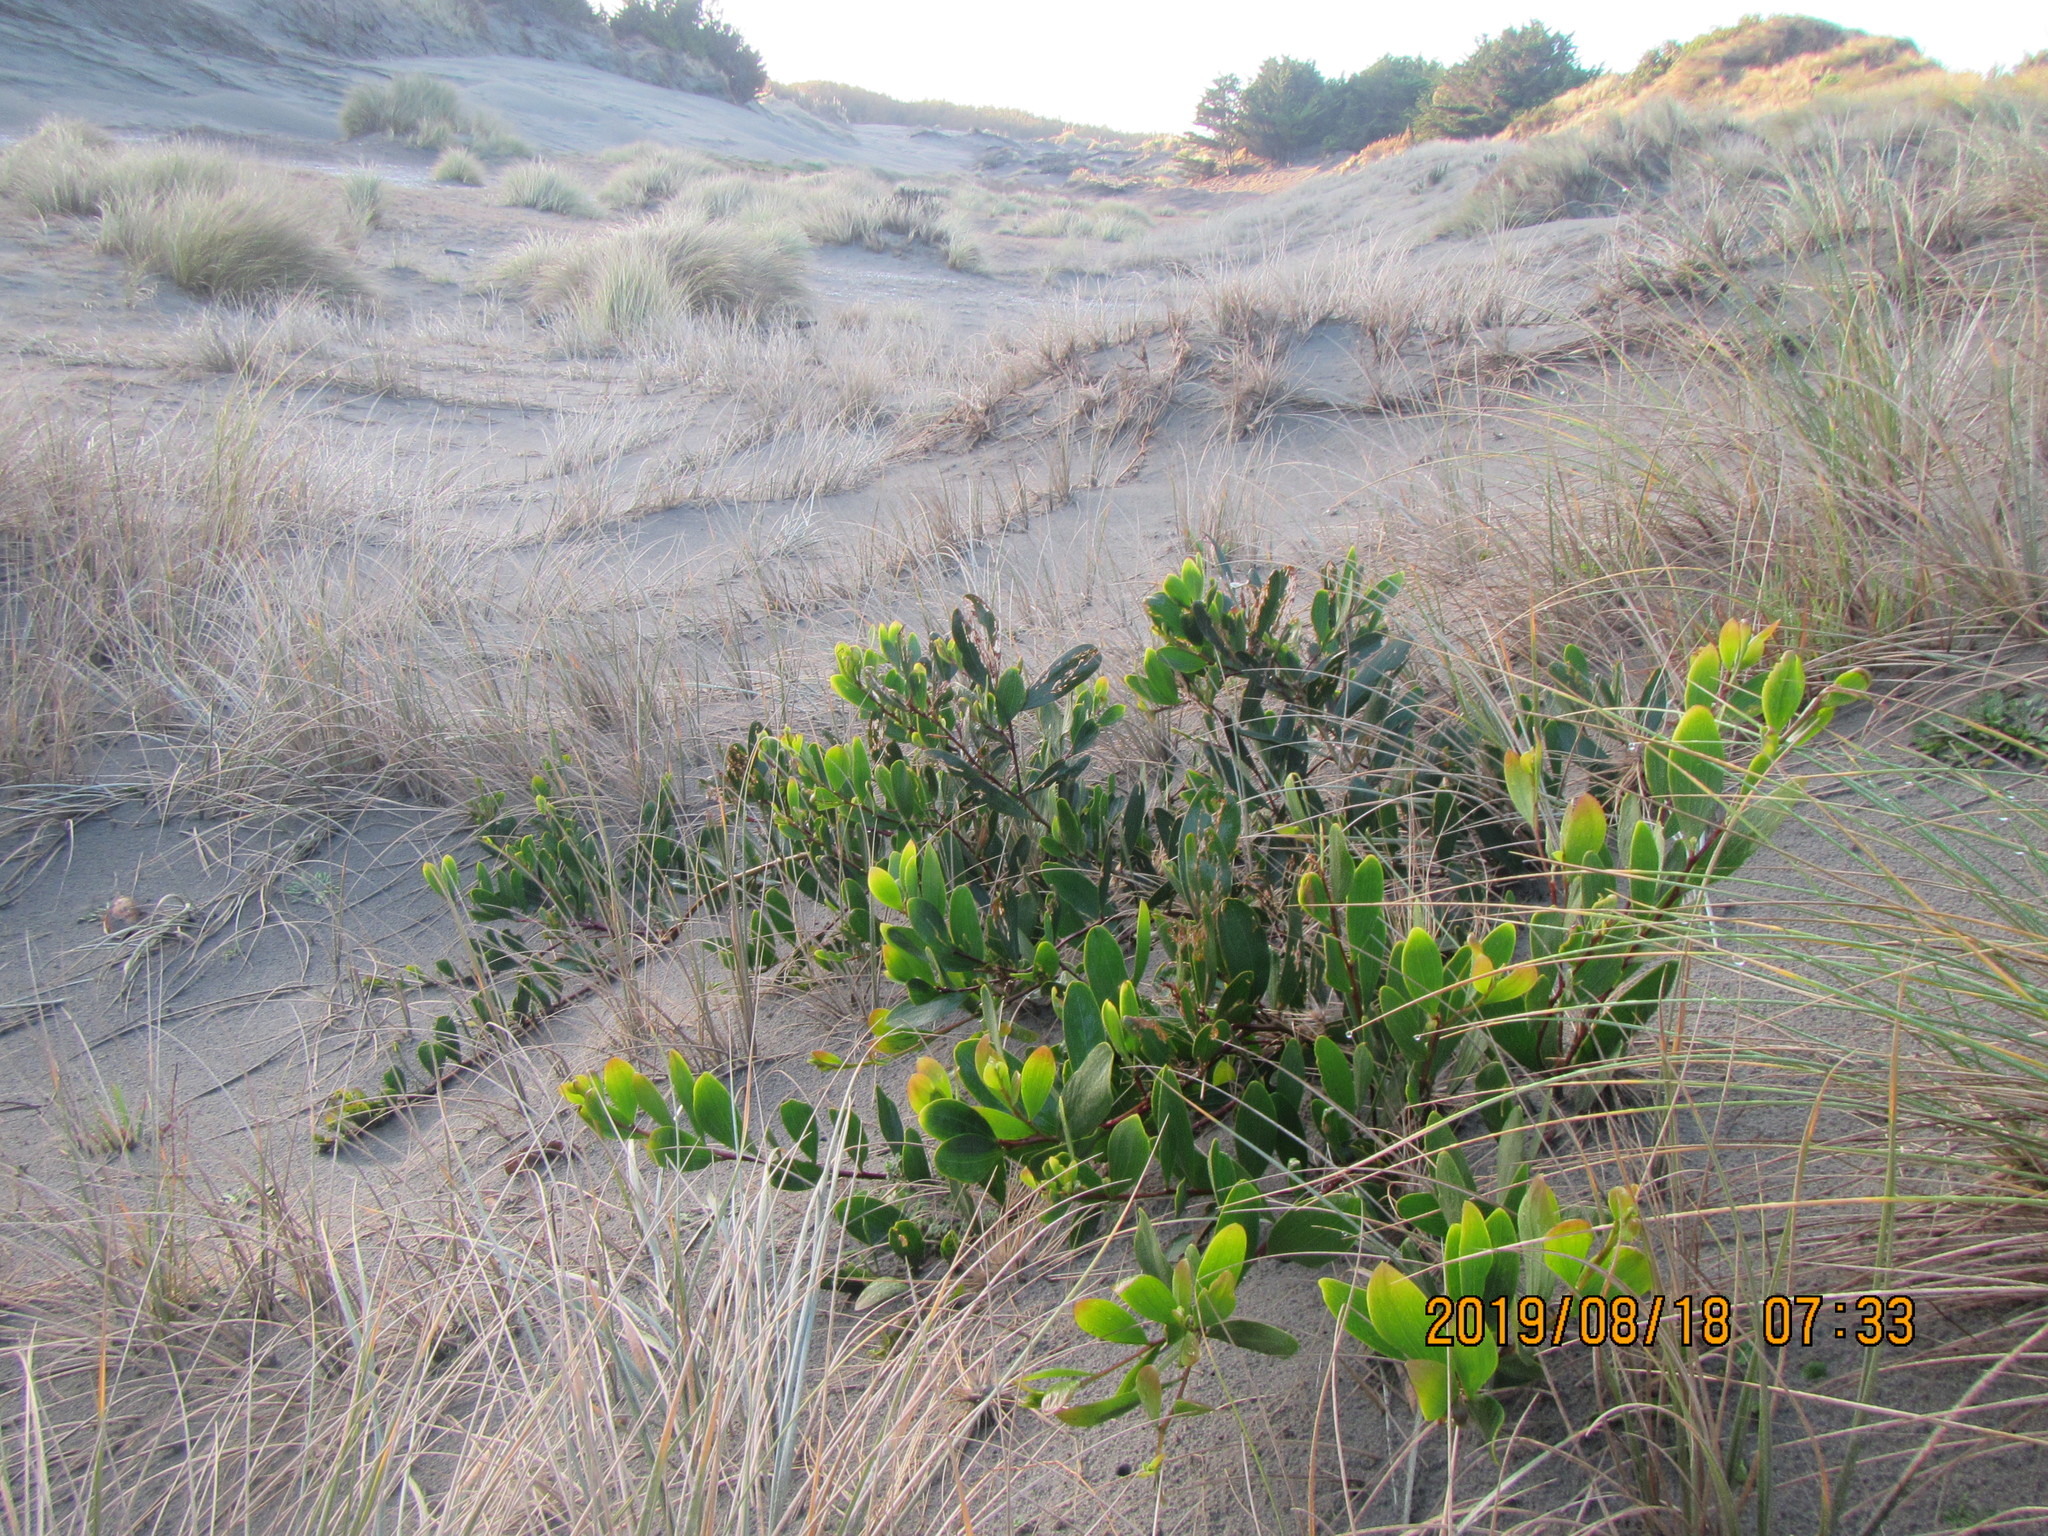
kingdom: Plantae
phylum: Tracheophyta
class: Magnoliopsida
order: Fabales
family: Fabaceae
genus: Acacia
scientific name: Acacia longifolia
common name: Sydney golden wattle
